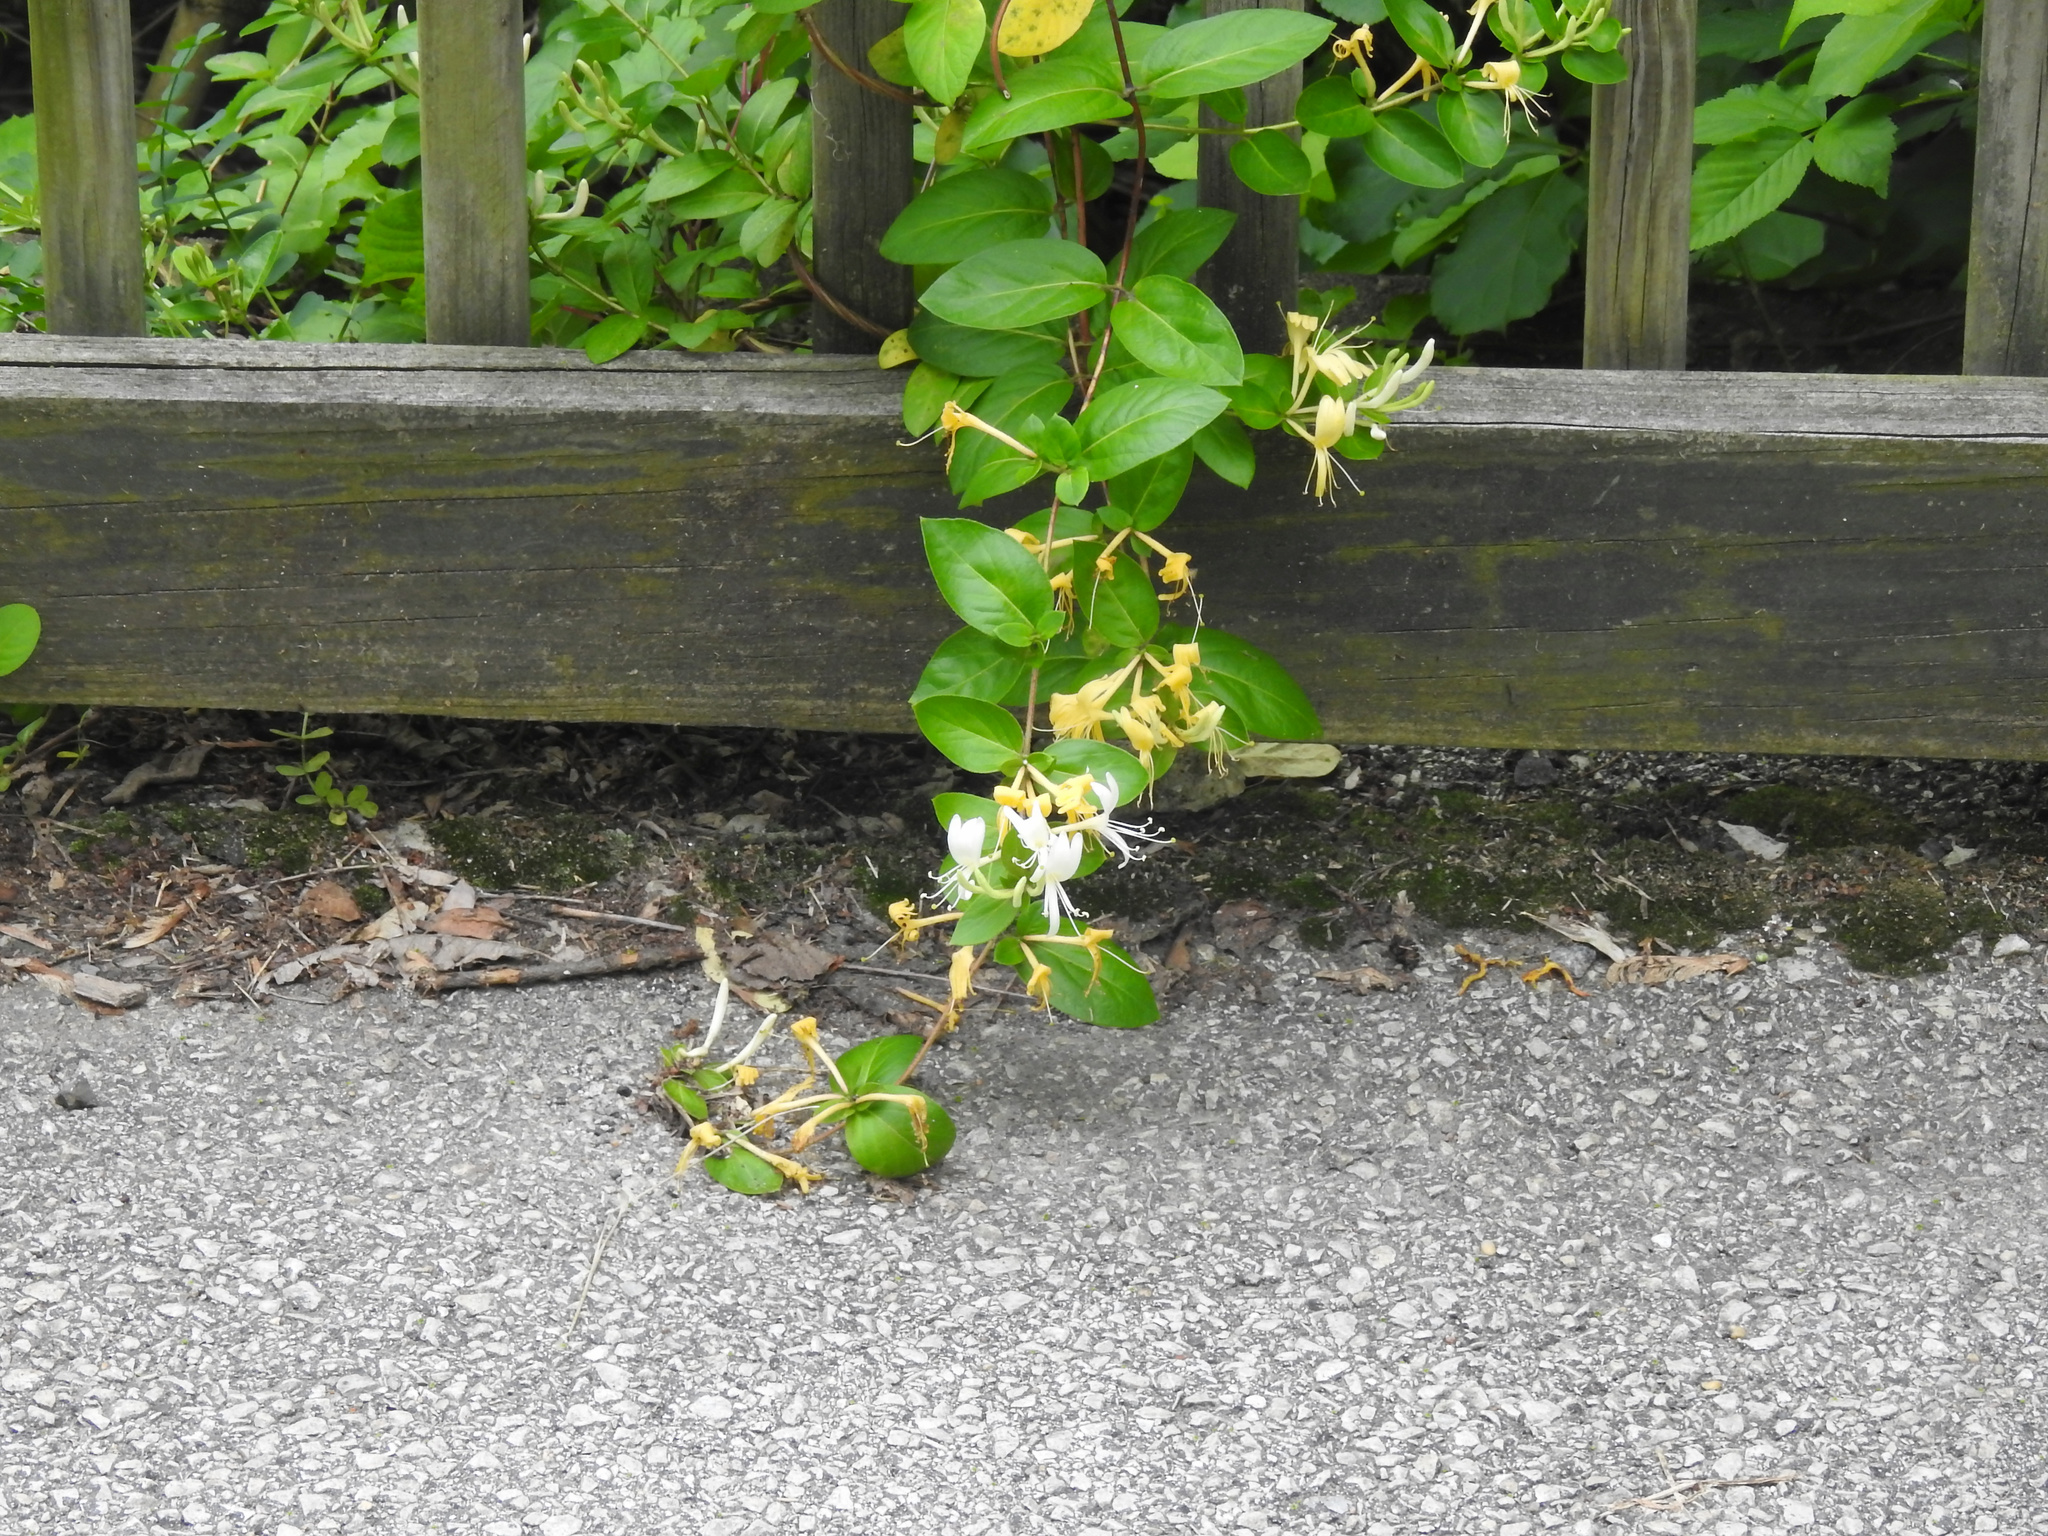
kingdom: Plantae
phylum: Tracheophyta
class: Magnoliopsida
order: Dipsacales
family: Caprifoliaceae
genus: Lonicera
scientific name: Lonicera japonica
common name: Japanese honeysuckle
